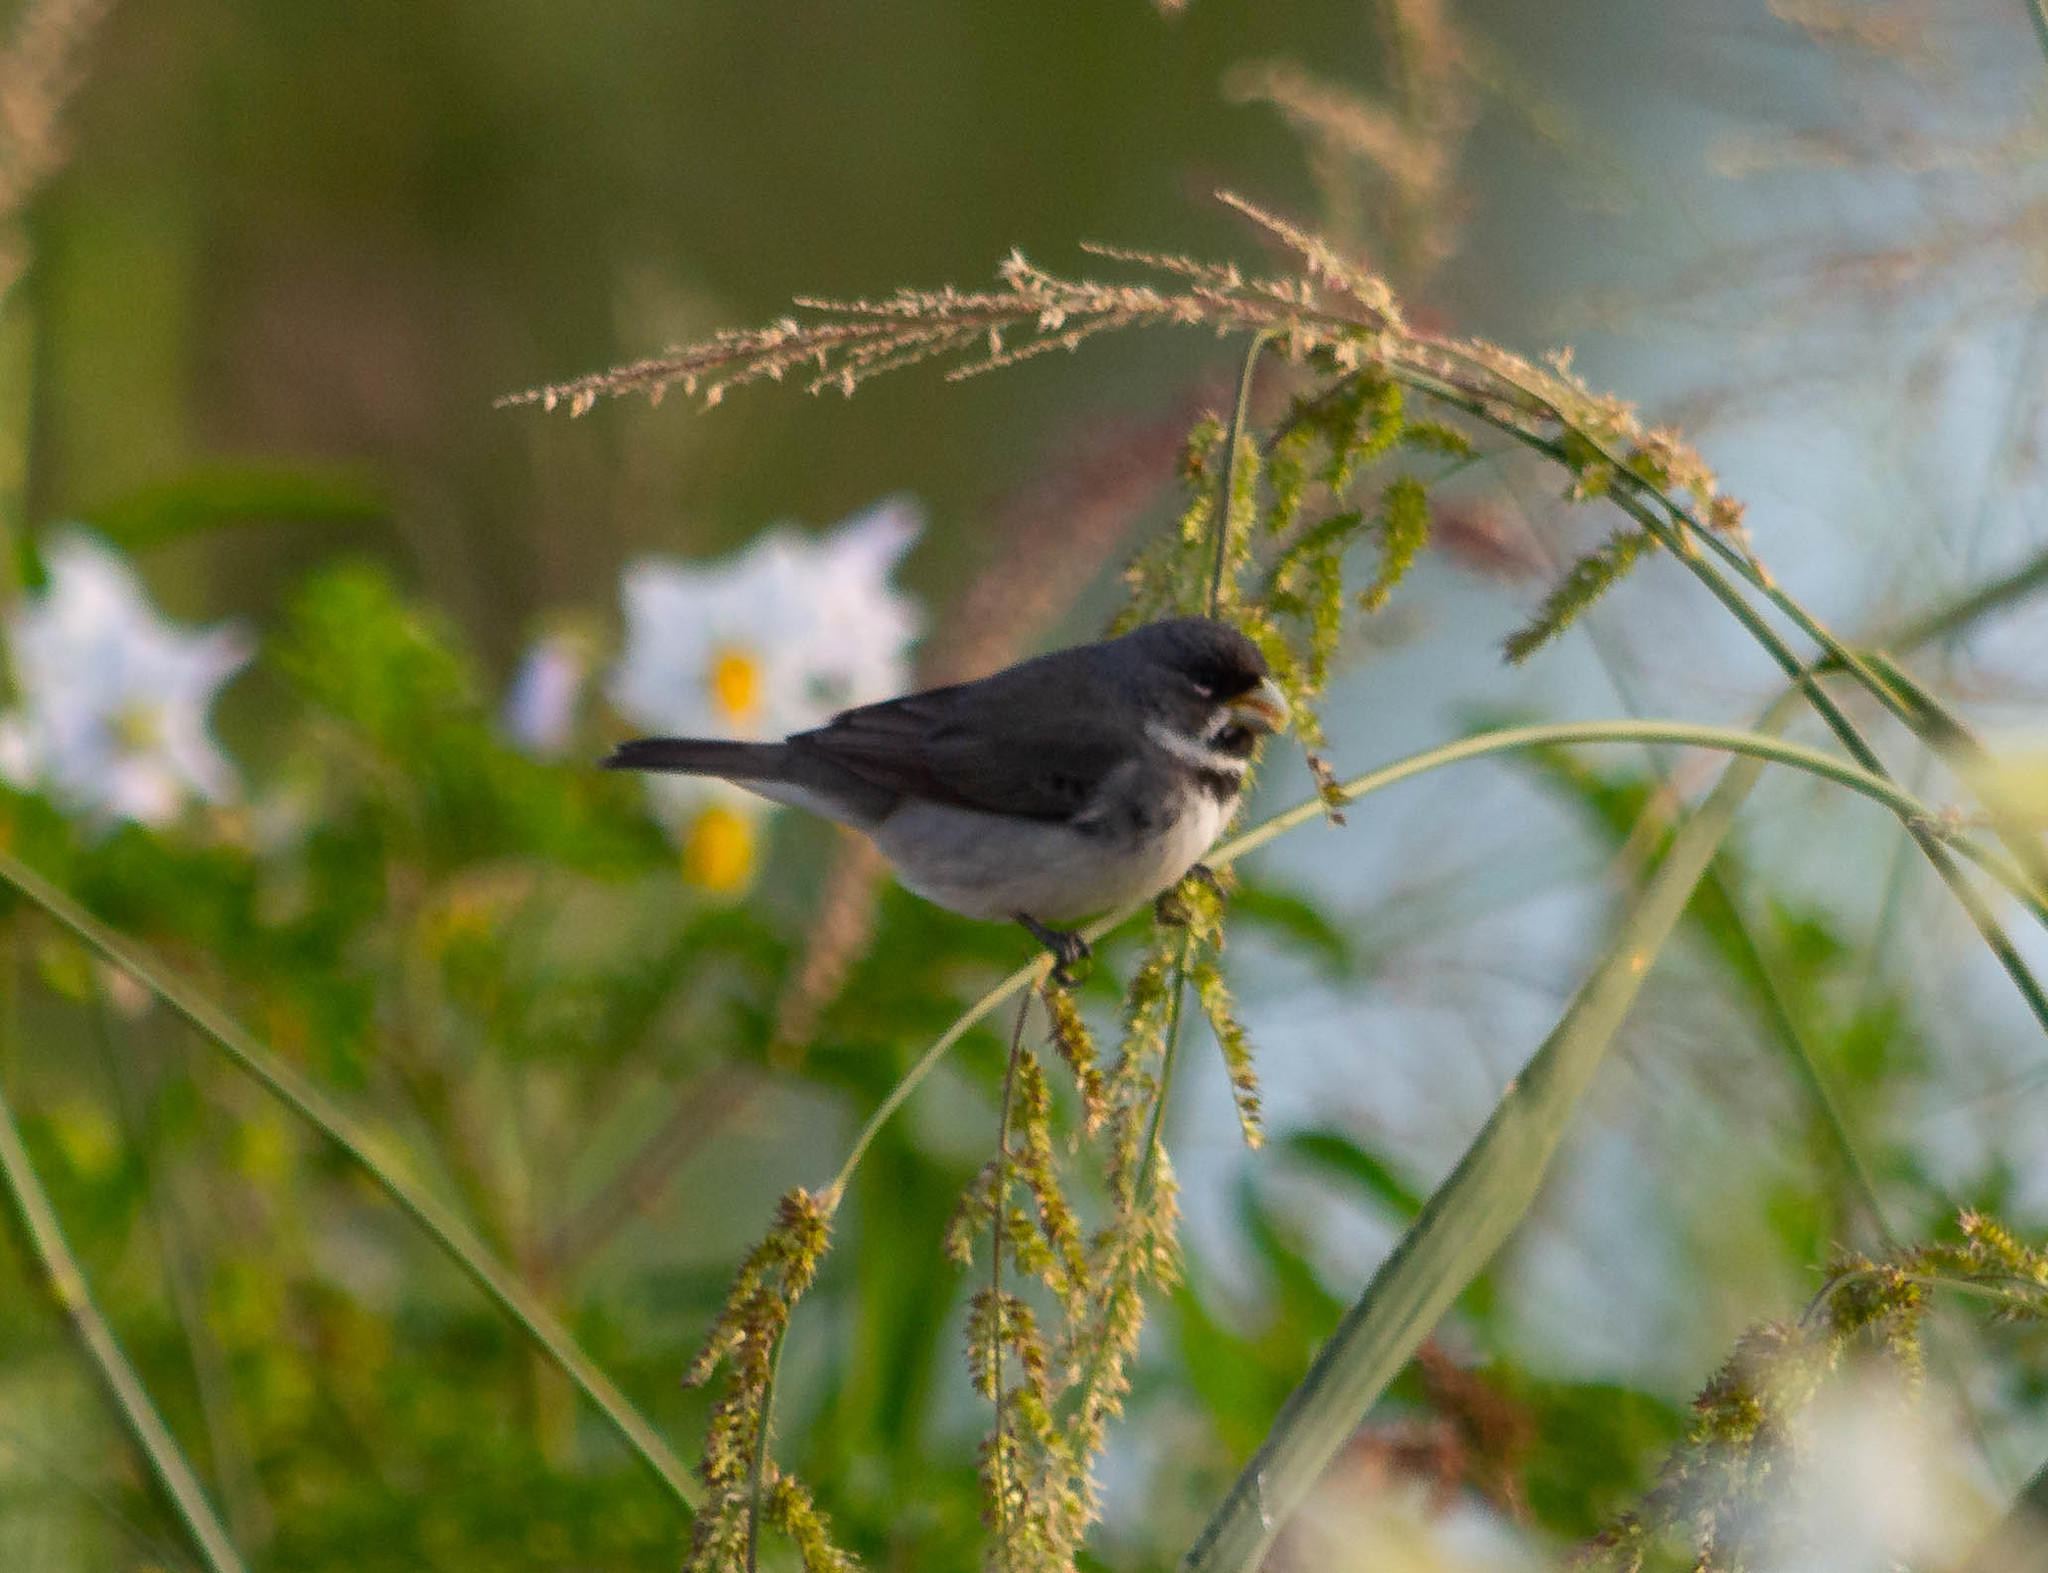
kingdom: Animalia
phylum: Chordata
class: Aves
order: Passeriformes
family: Thraupidae
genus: Sporophila
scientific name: Sporophila caerulescens
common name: Double-collared seedeater
